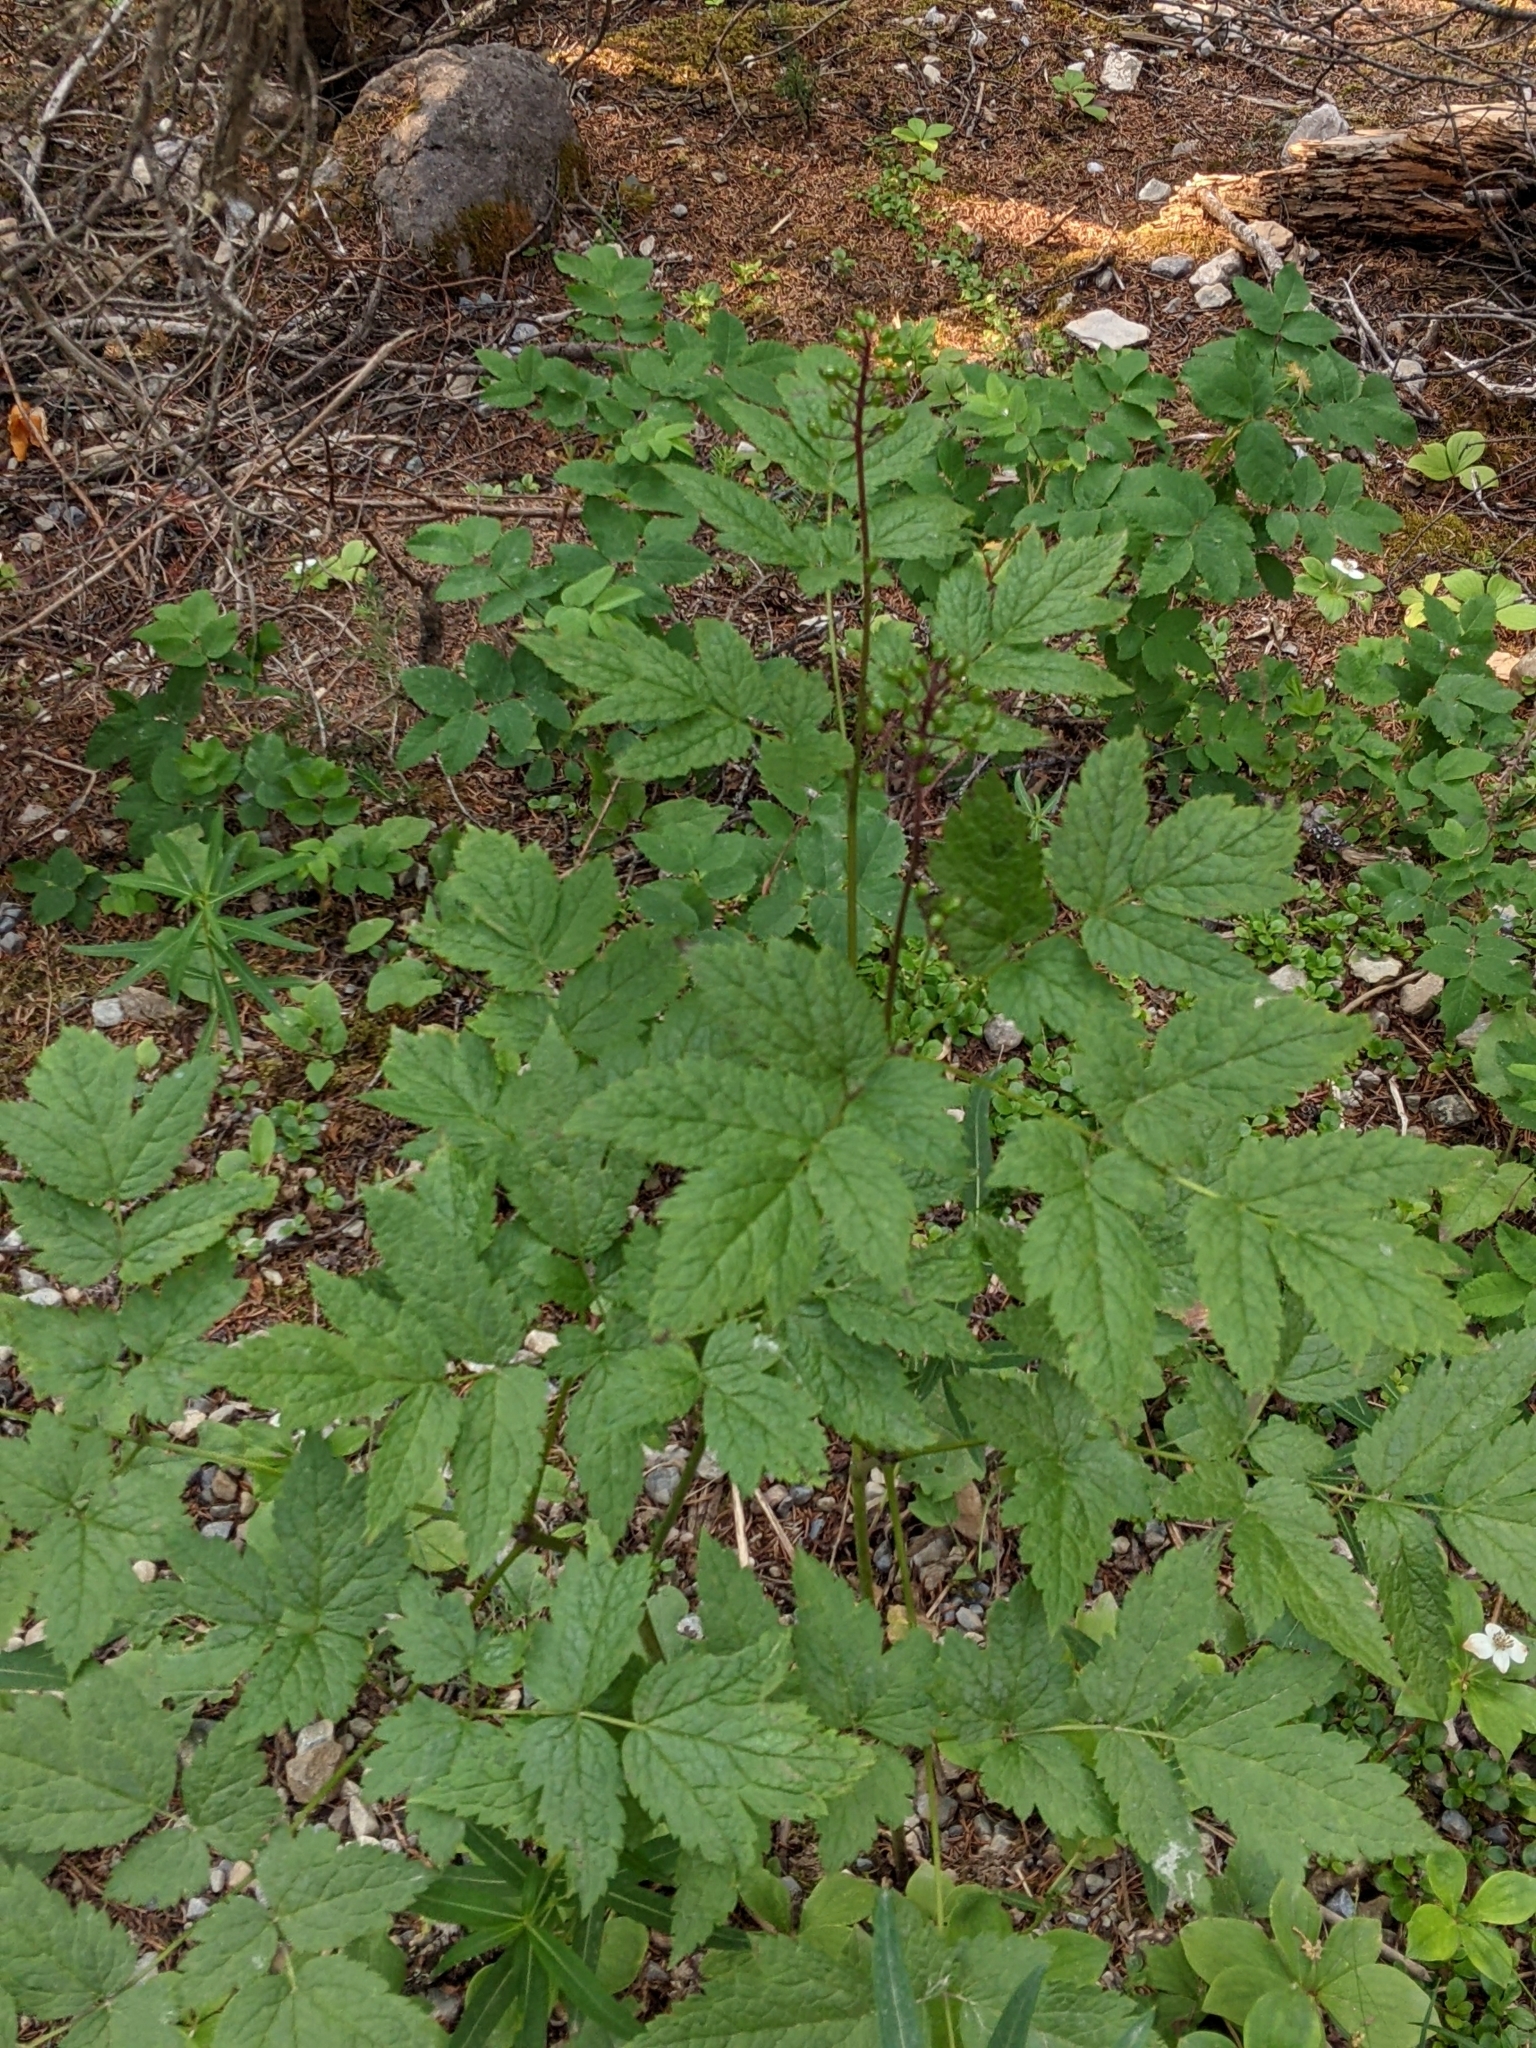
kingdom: Plantae
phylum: Tracheophyta
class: Magnoliopsida
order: Ranunculales
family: Ranunculaceae
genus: Actaea
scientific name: Actaea rubra
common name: Red baneberry
